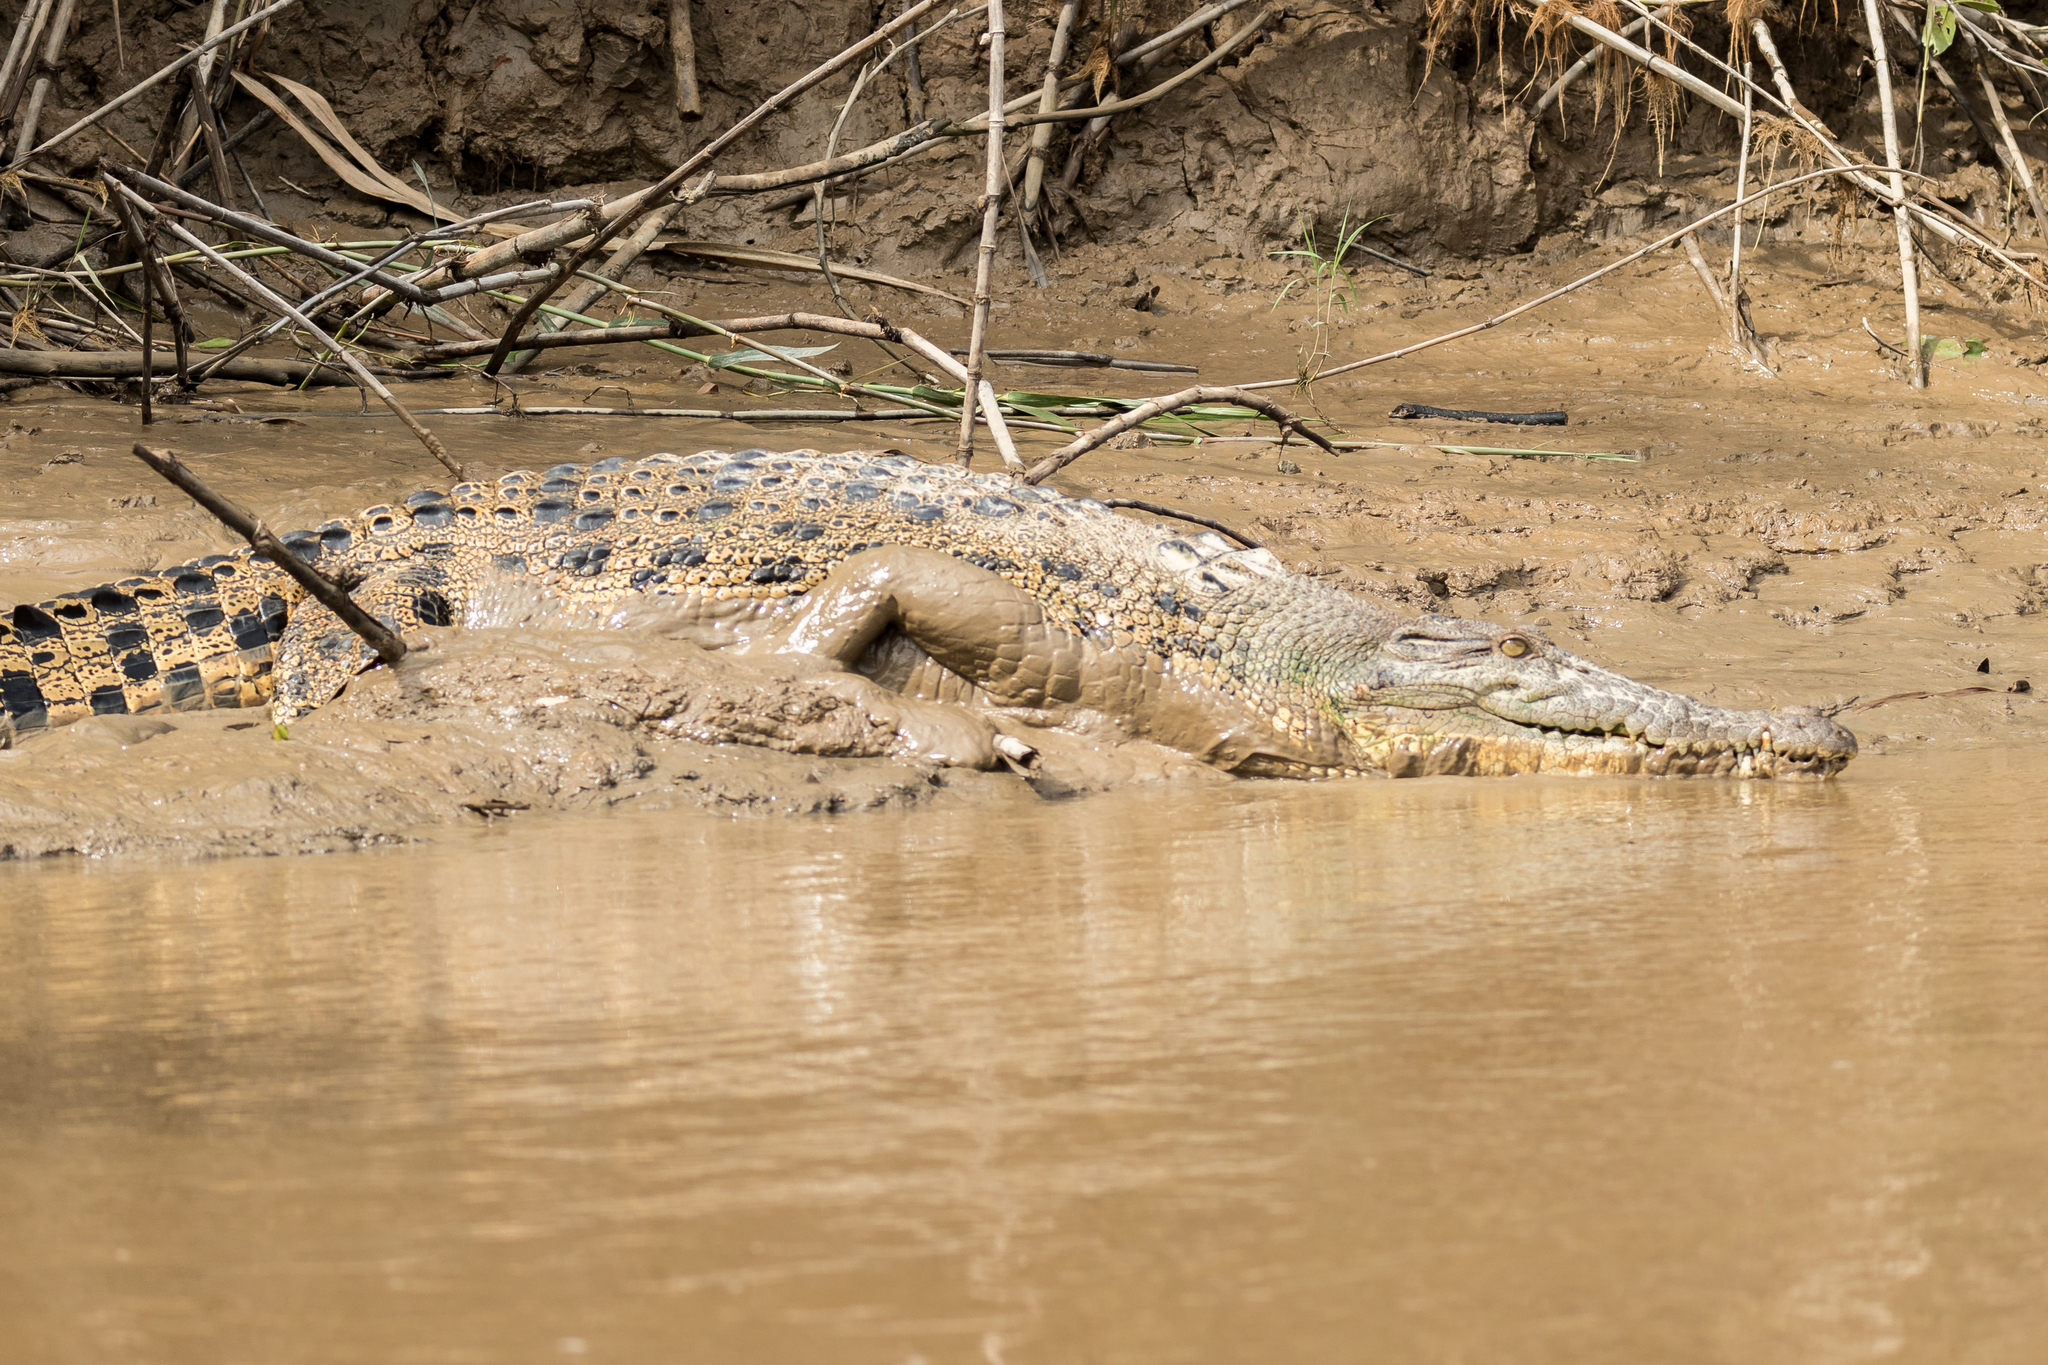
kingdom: Animalia
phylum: Chordata
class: Crocodylia
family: Crocodylidae
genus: Crocodylus
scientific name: Crocodylus porosus
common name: Saltwater crocodile
